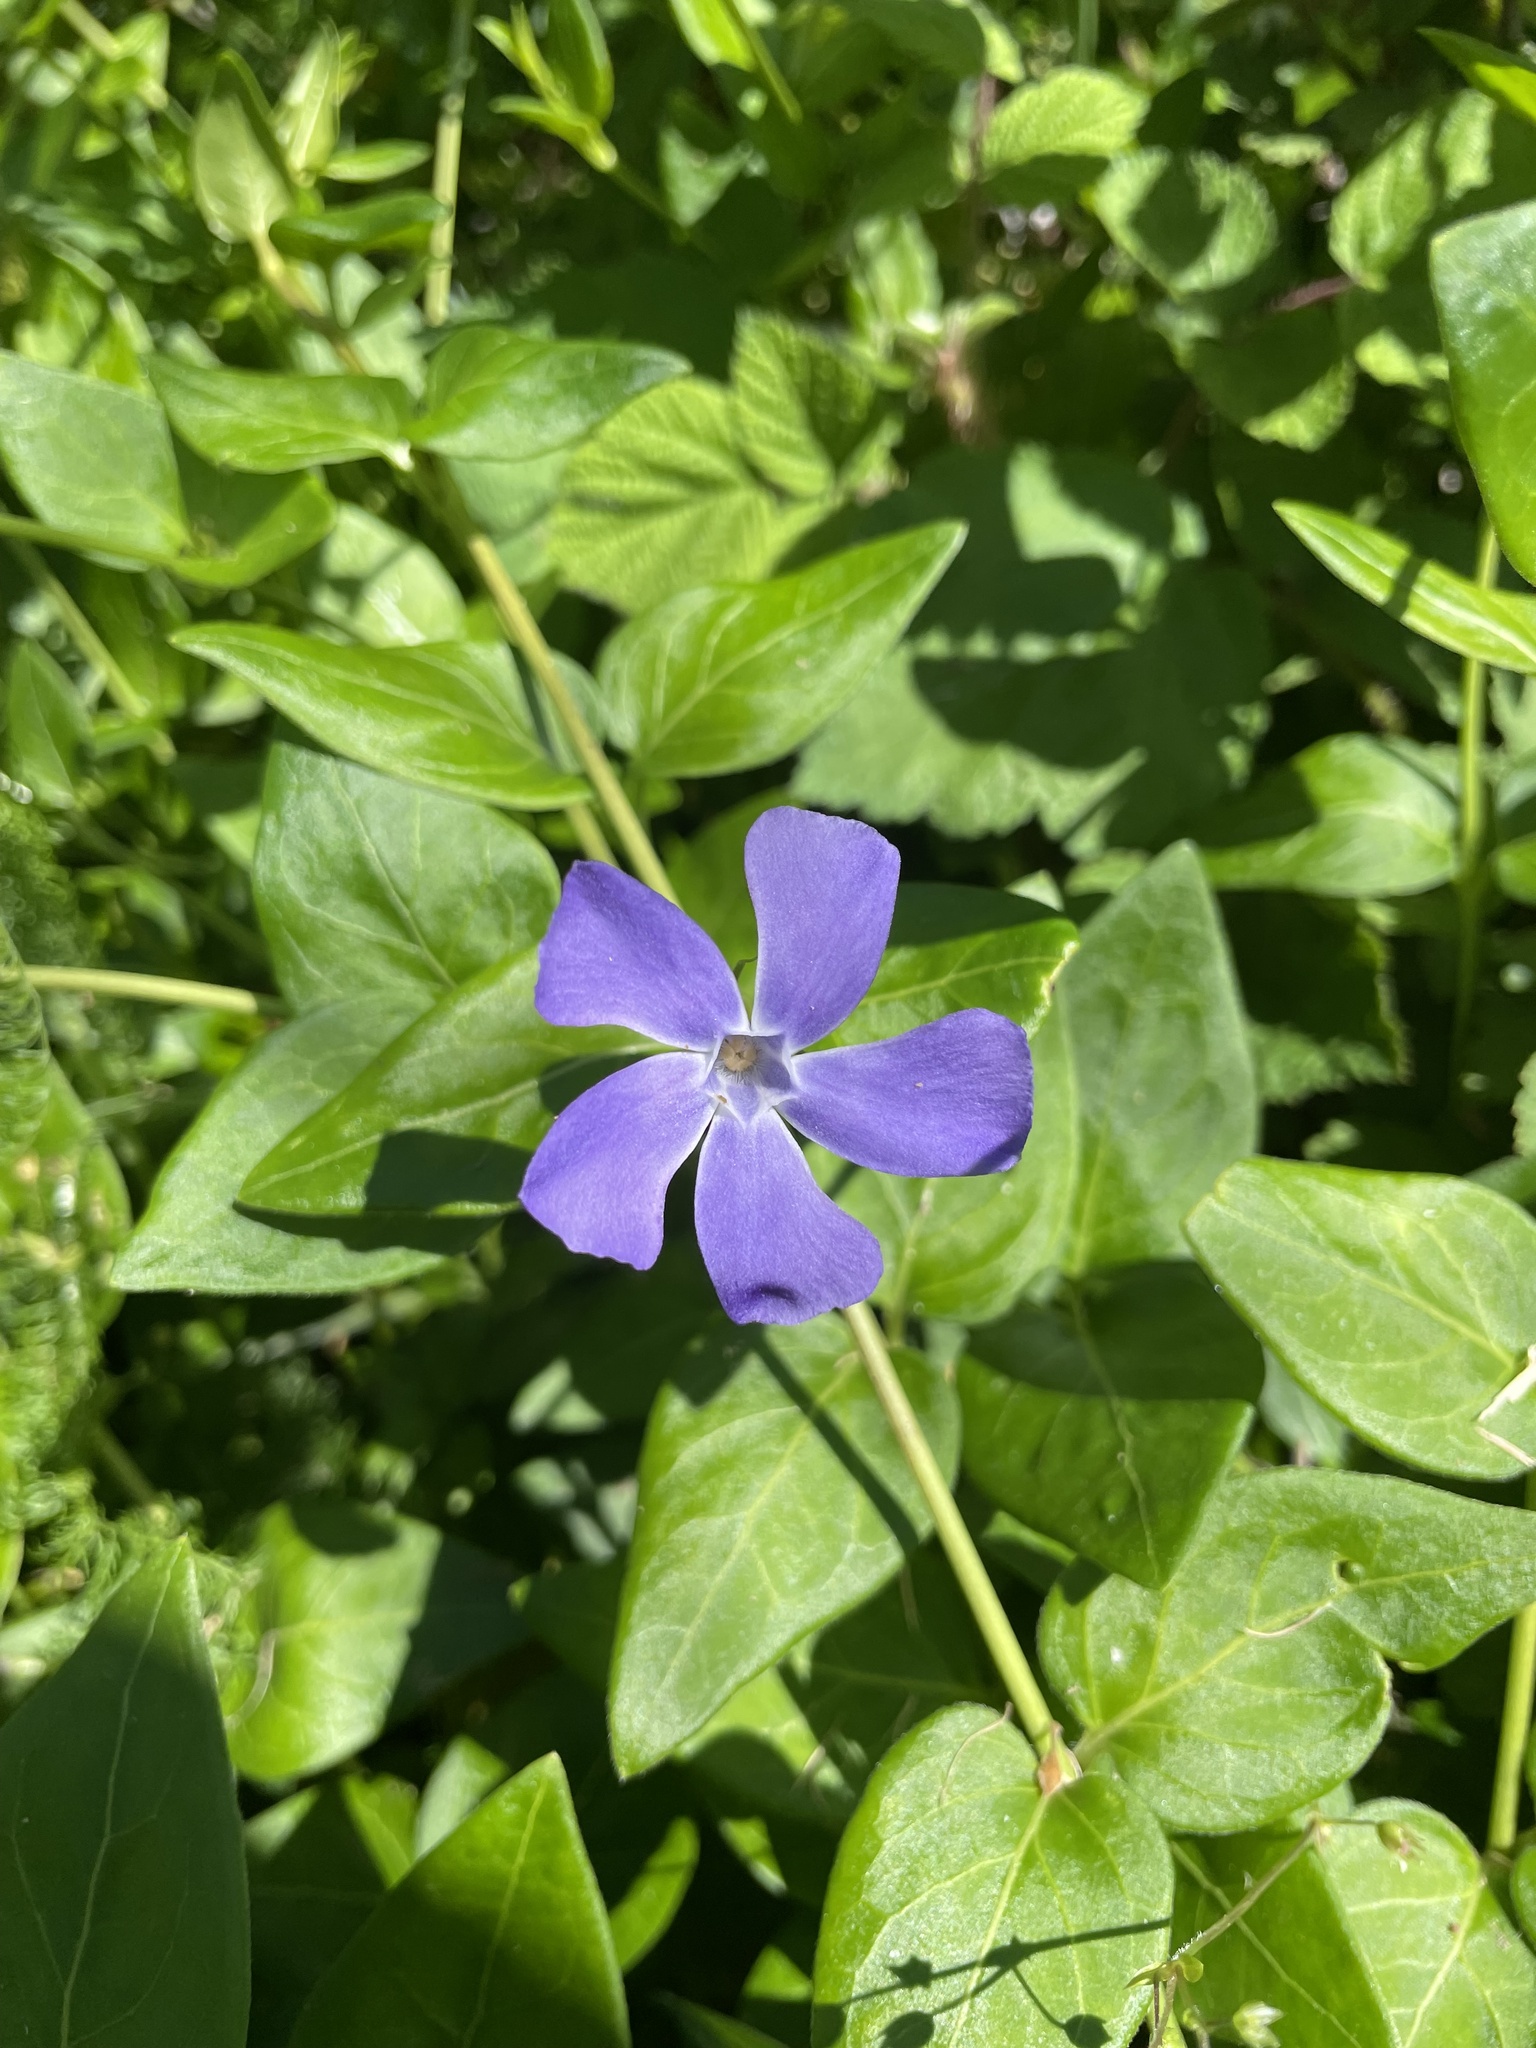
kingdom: Plantae
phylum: Tracheophyta
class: Magnoliopsida
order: Gentianales
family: Apocynaceae
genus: Vinca
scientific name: Vinca major
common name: Greater periwinkle
